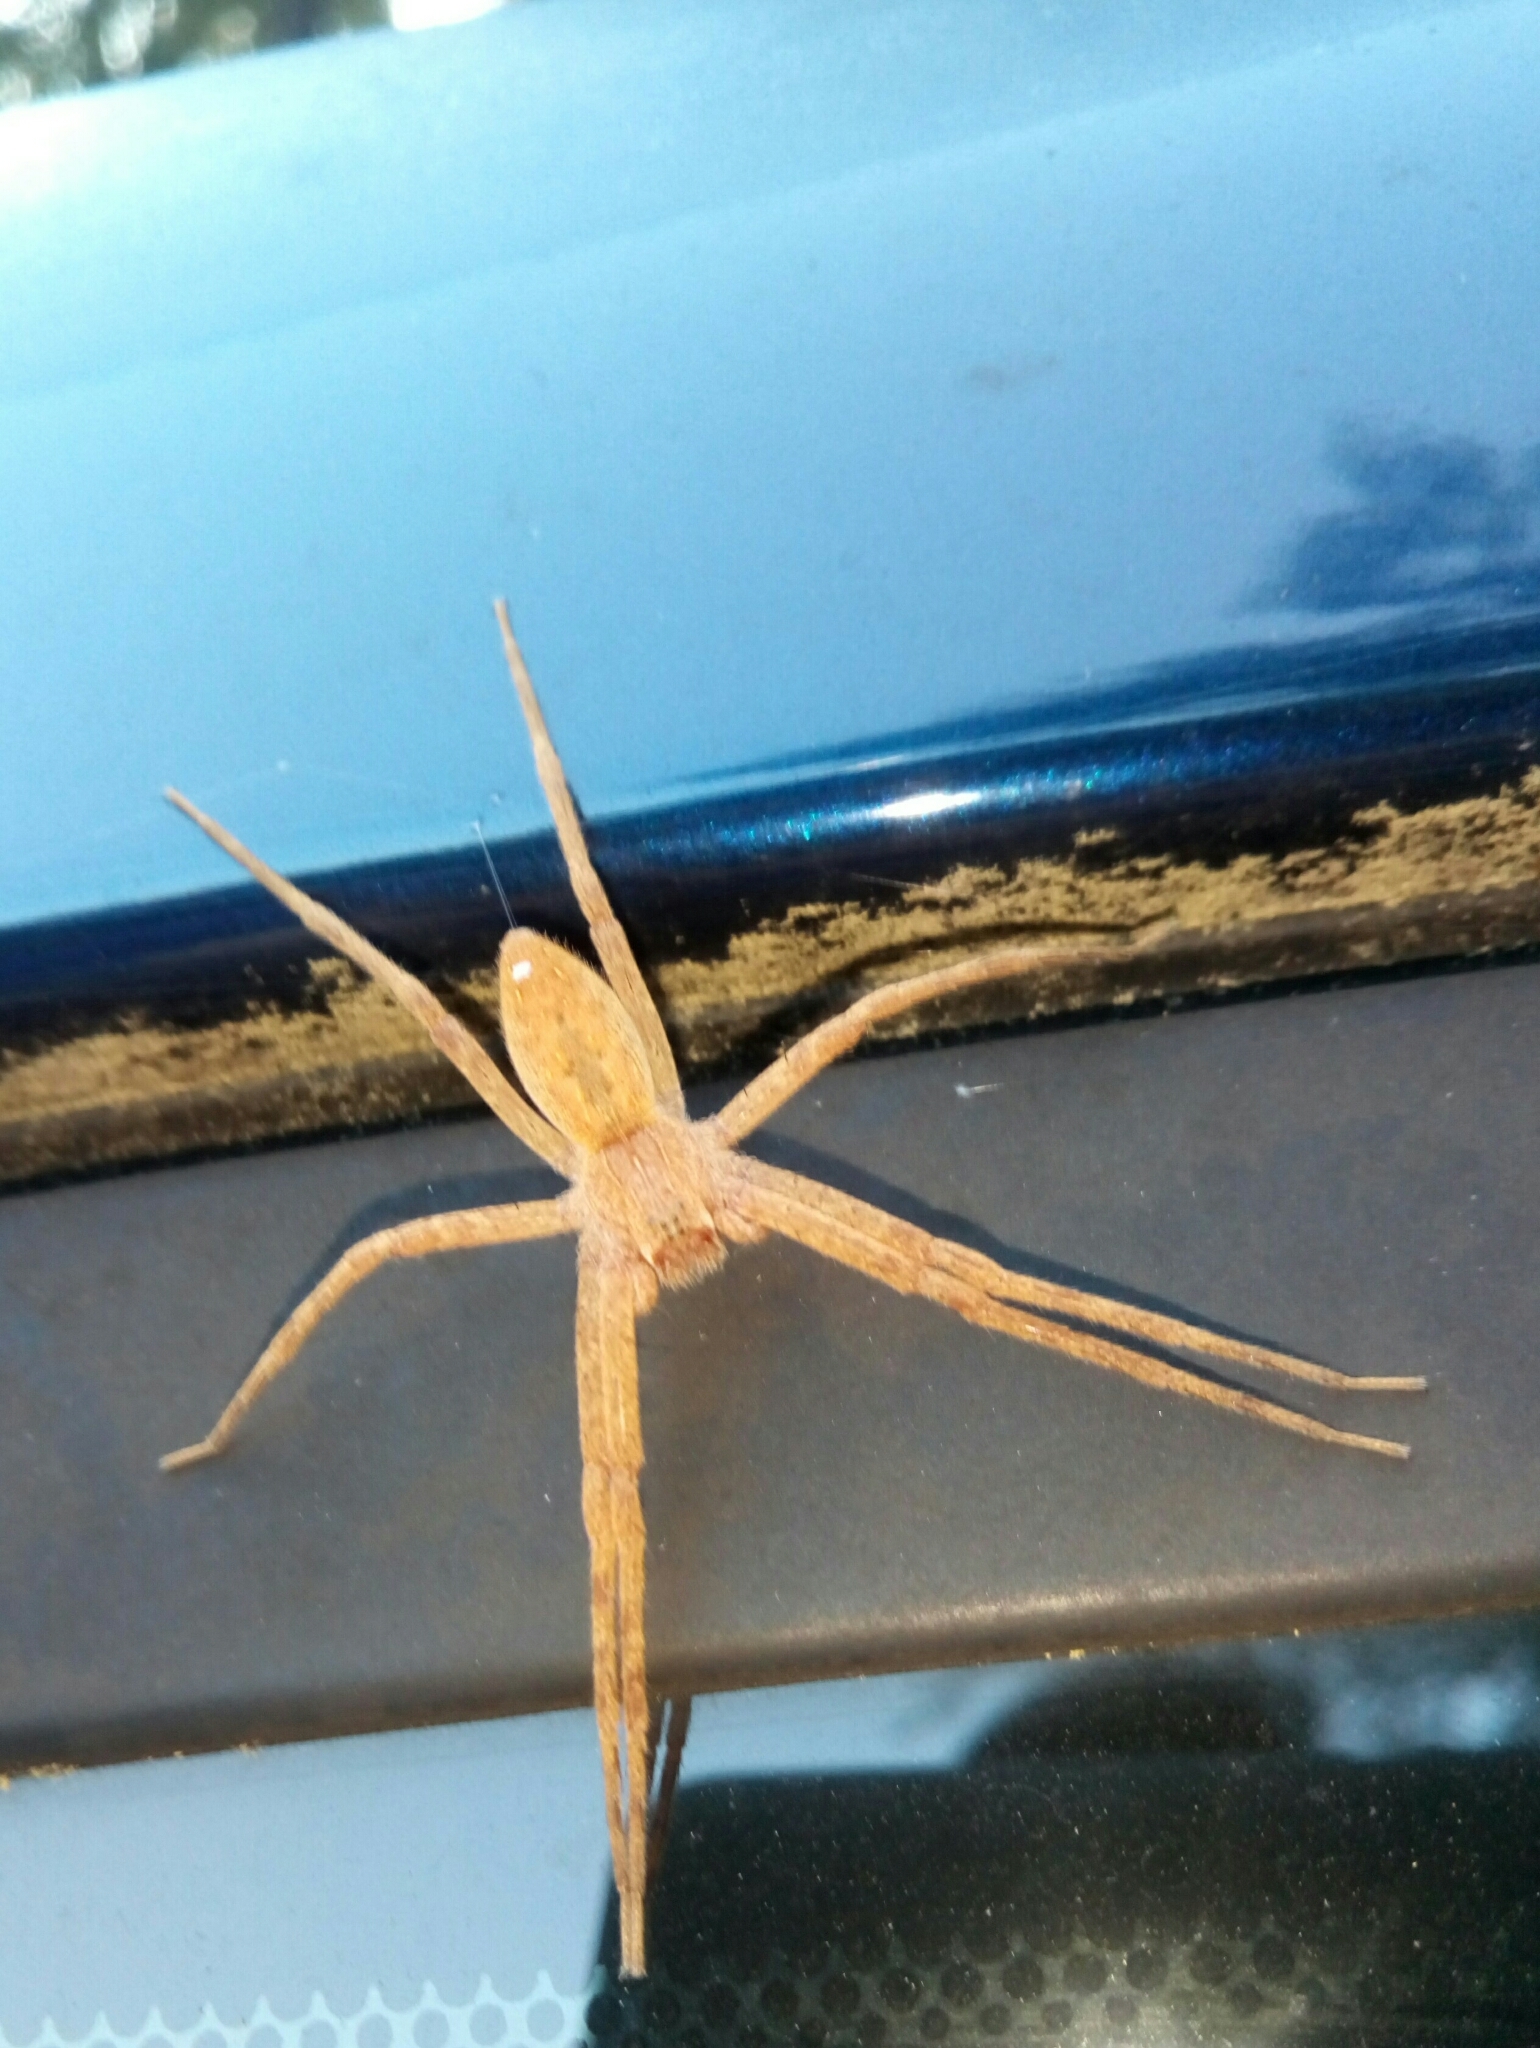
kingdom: Animalia
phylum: Arthropoda
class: Arachnida
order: Araneae
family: Pisauridae
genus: Pisaurina
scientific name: Pisaurina mira
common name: American nursery web spider
